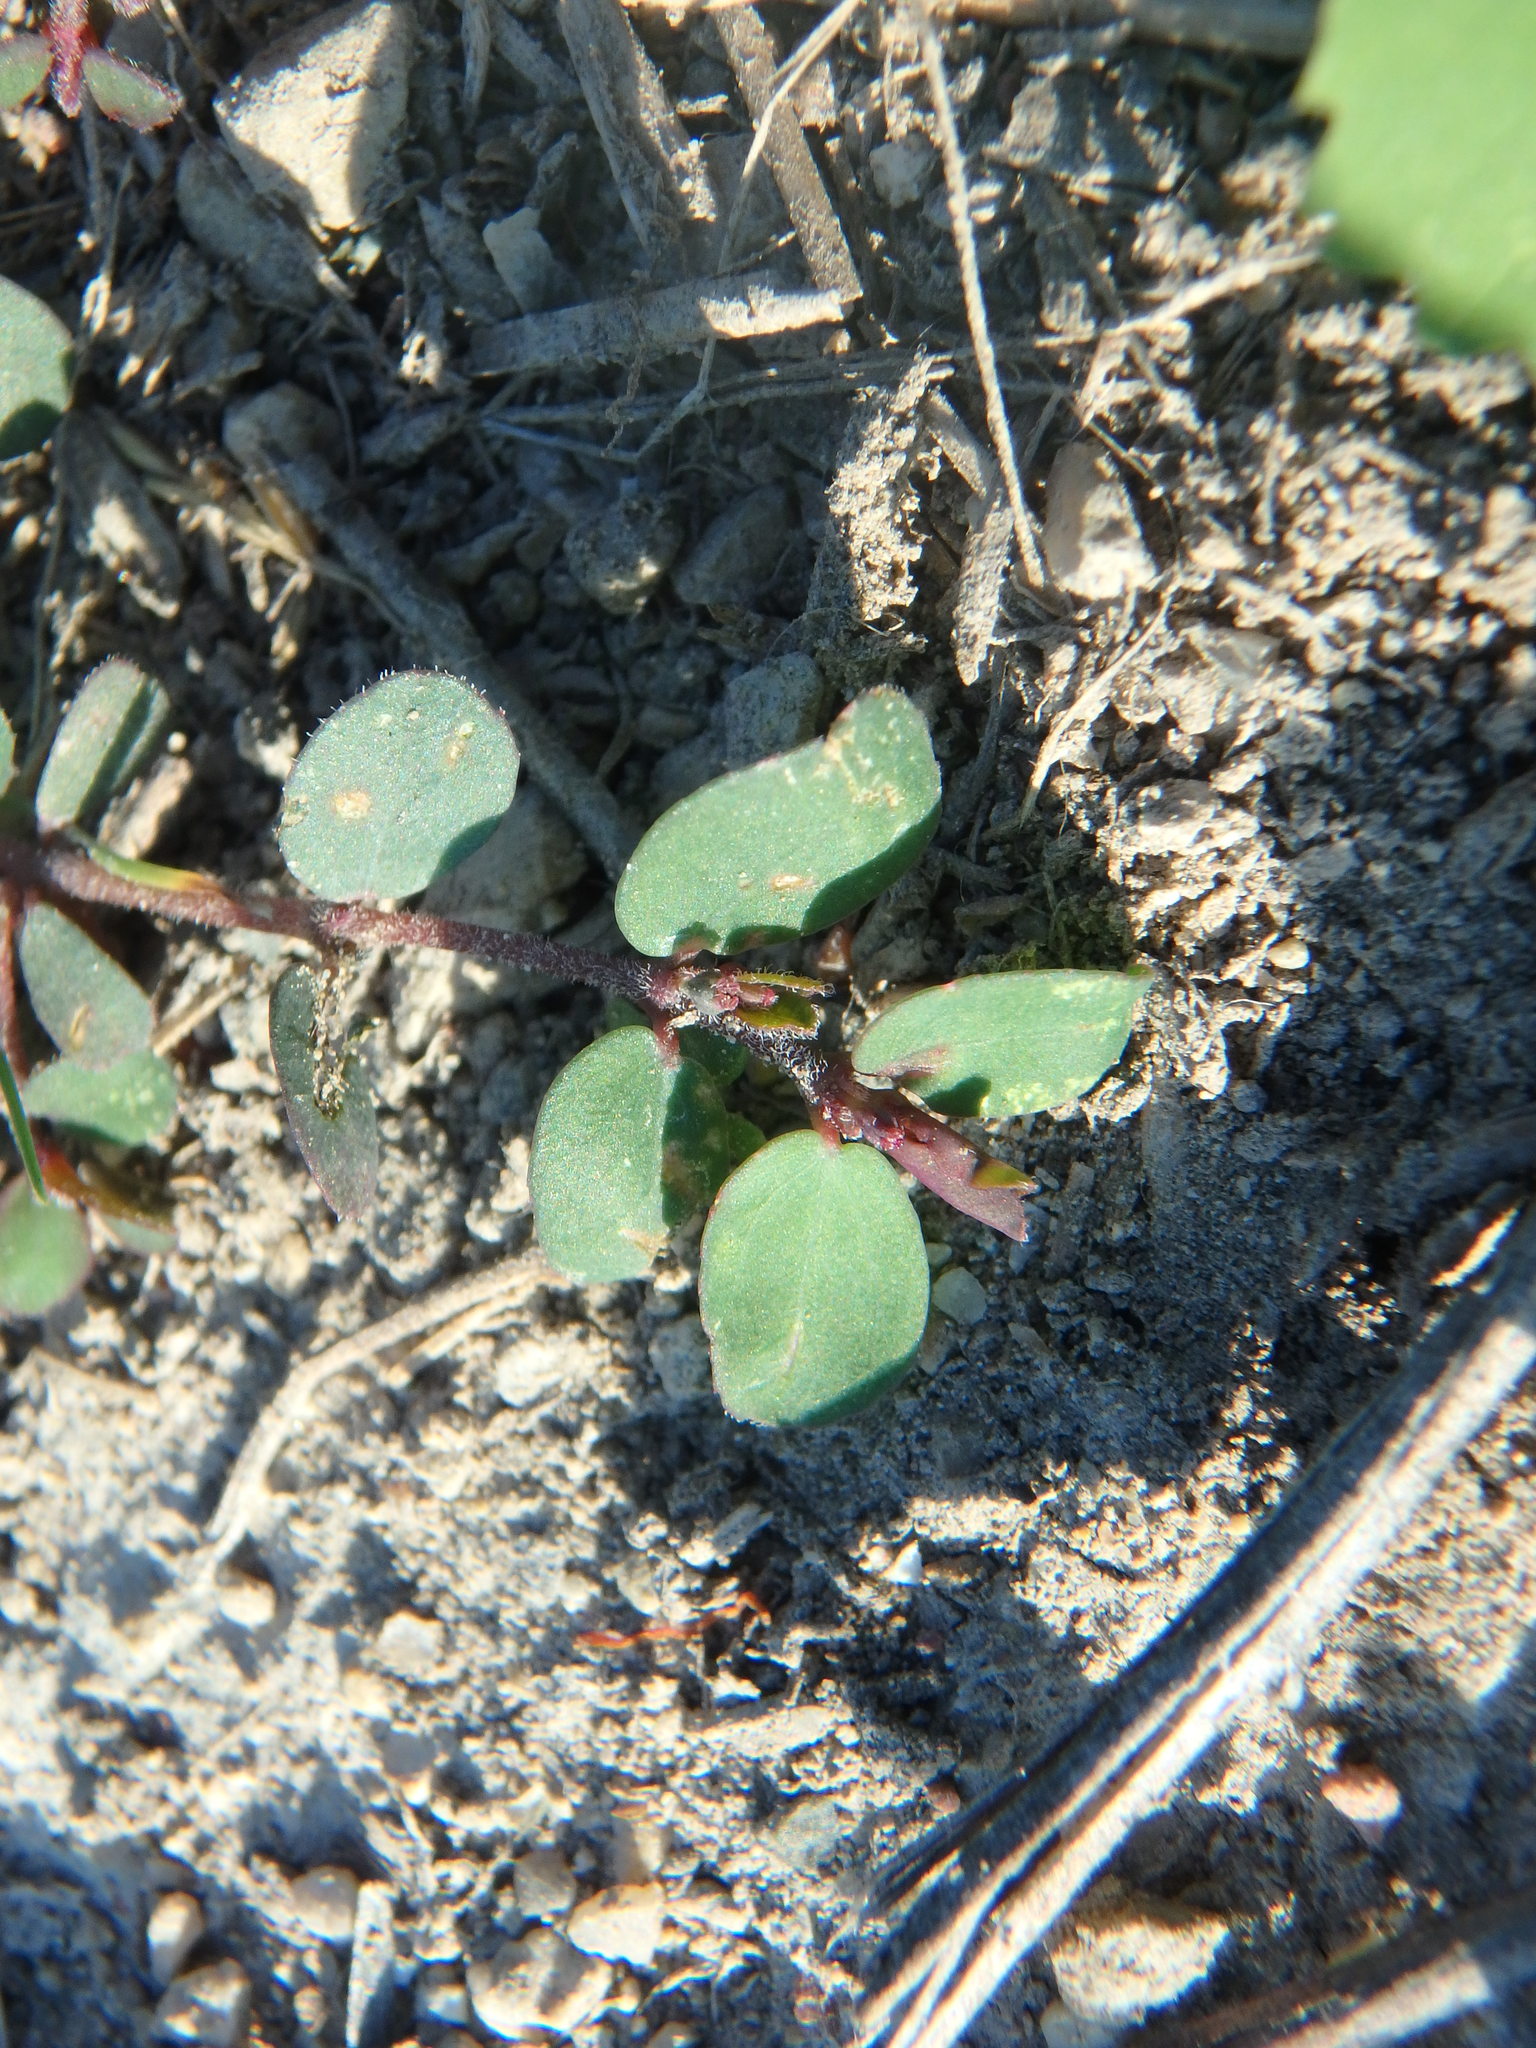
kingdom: Plantae
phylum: Tracheophyta
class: Magnoliopsida
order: Malpighiales
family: Euphorbiaceae
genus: Euphorbia
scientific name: Euphorbia prostrata
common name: Prostrate sandmat
